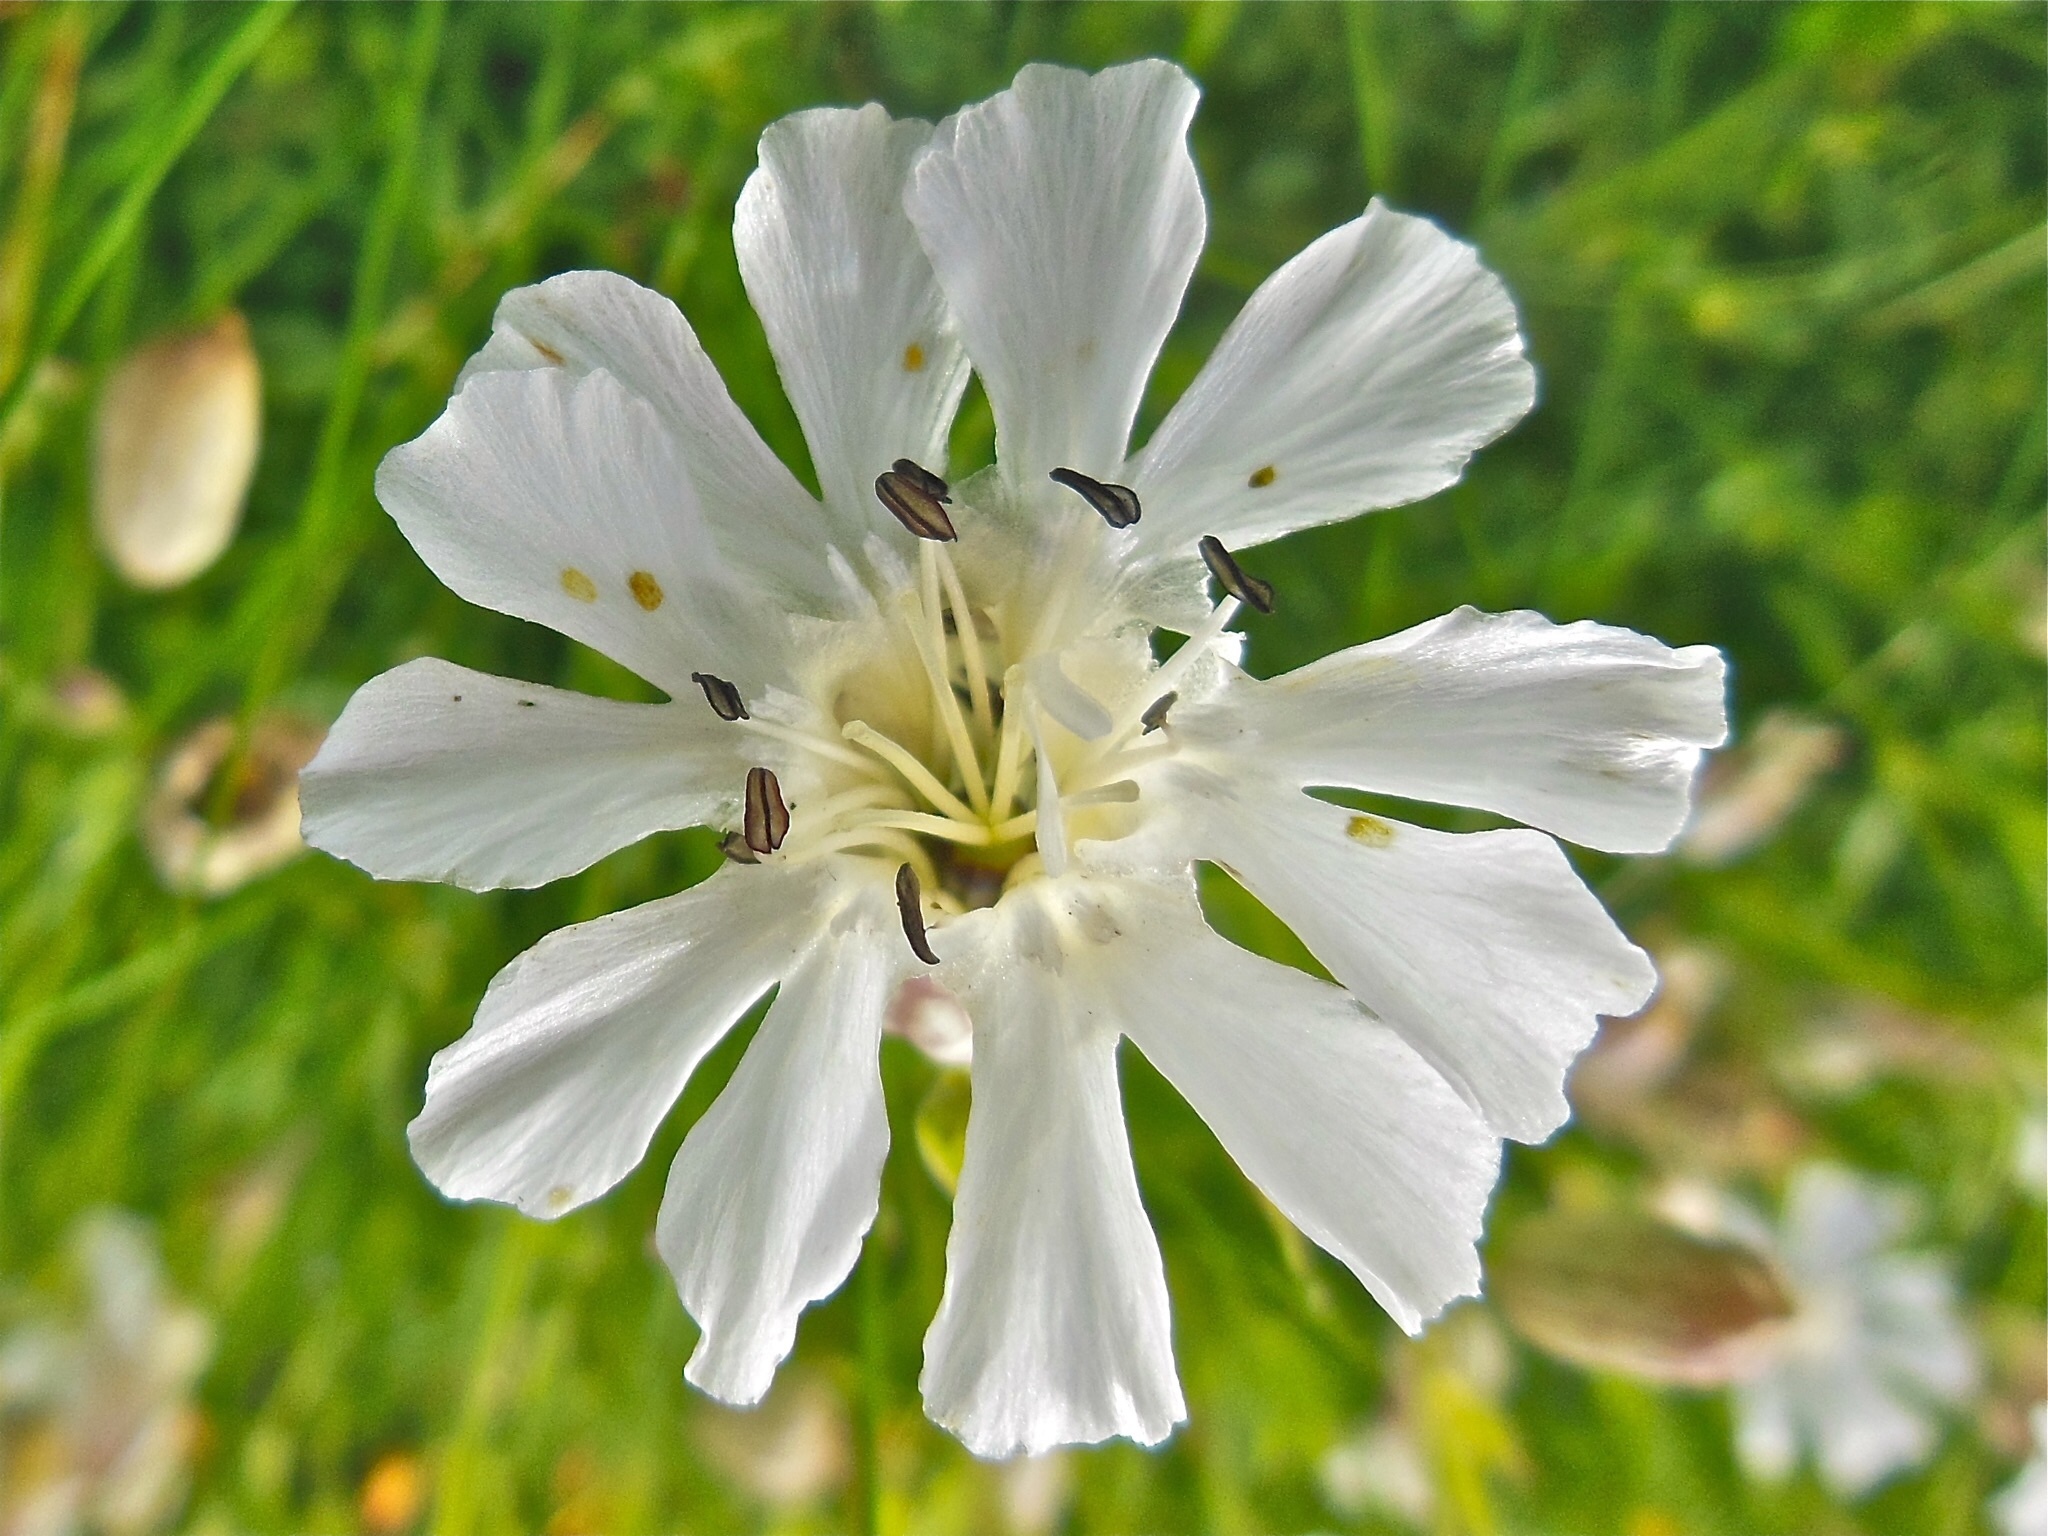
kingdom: Plantae
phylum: Tracheophyta
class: Magnoliopsida
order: Caryophyllales
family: Caryophyllaceae
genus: Silene
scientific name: Silene uniflora
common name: Sea campion
